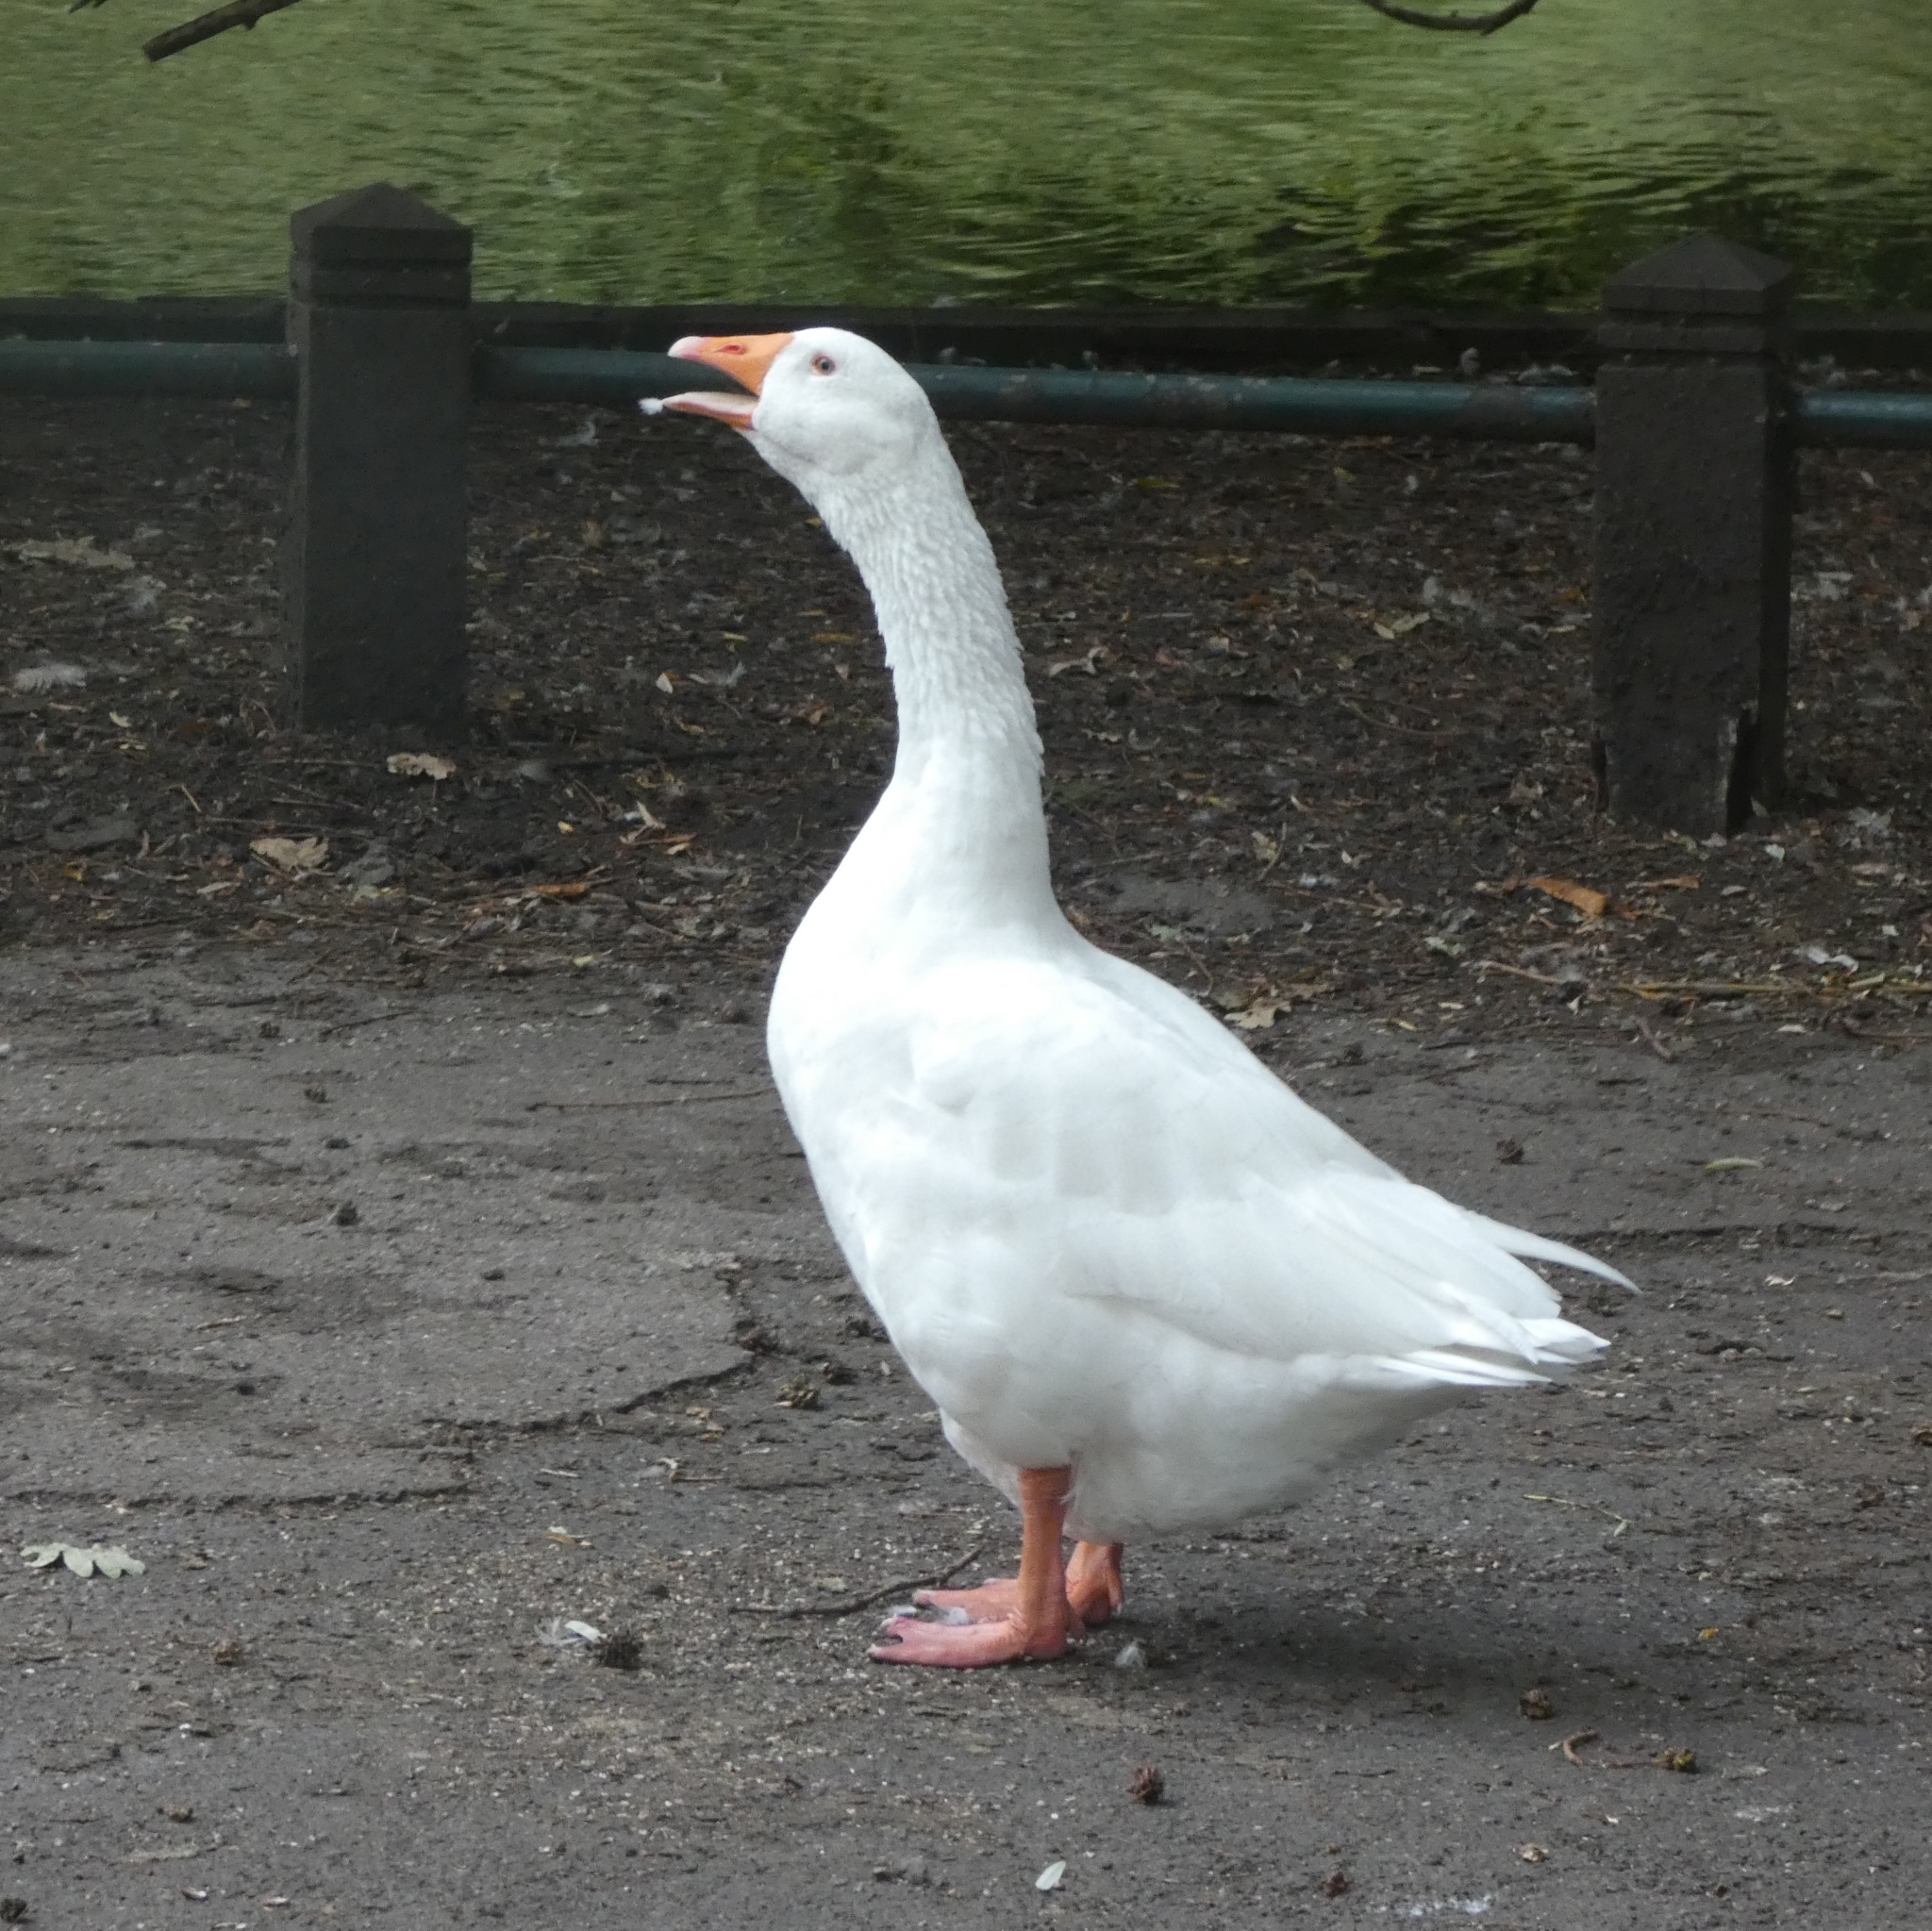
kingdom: Animalia
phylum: Chordata
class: Aves
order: Anseriformes
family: Anatidae
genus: Anser
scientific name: Anser anser
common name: Greylag goose
